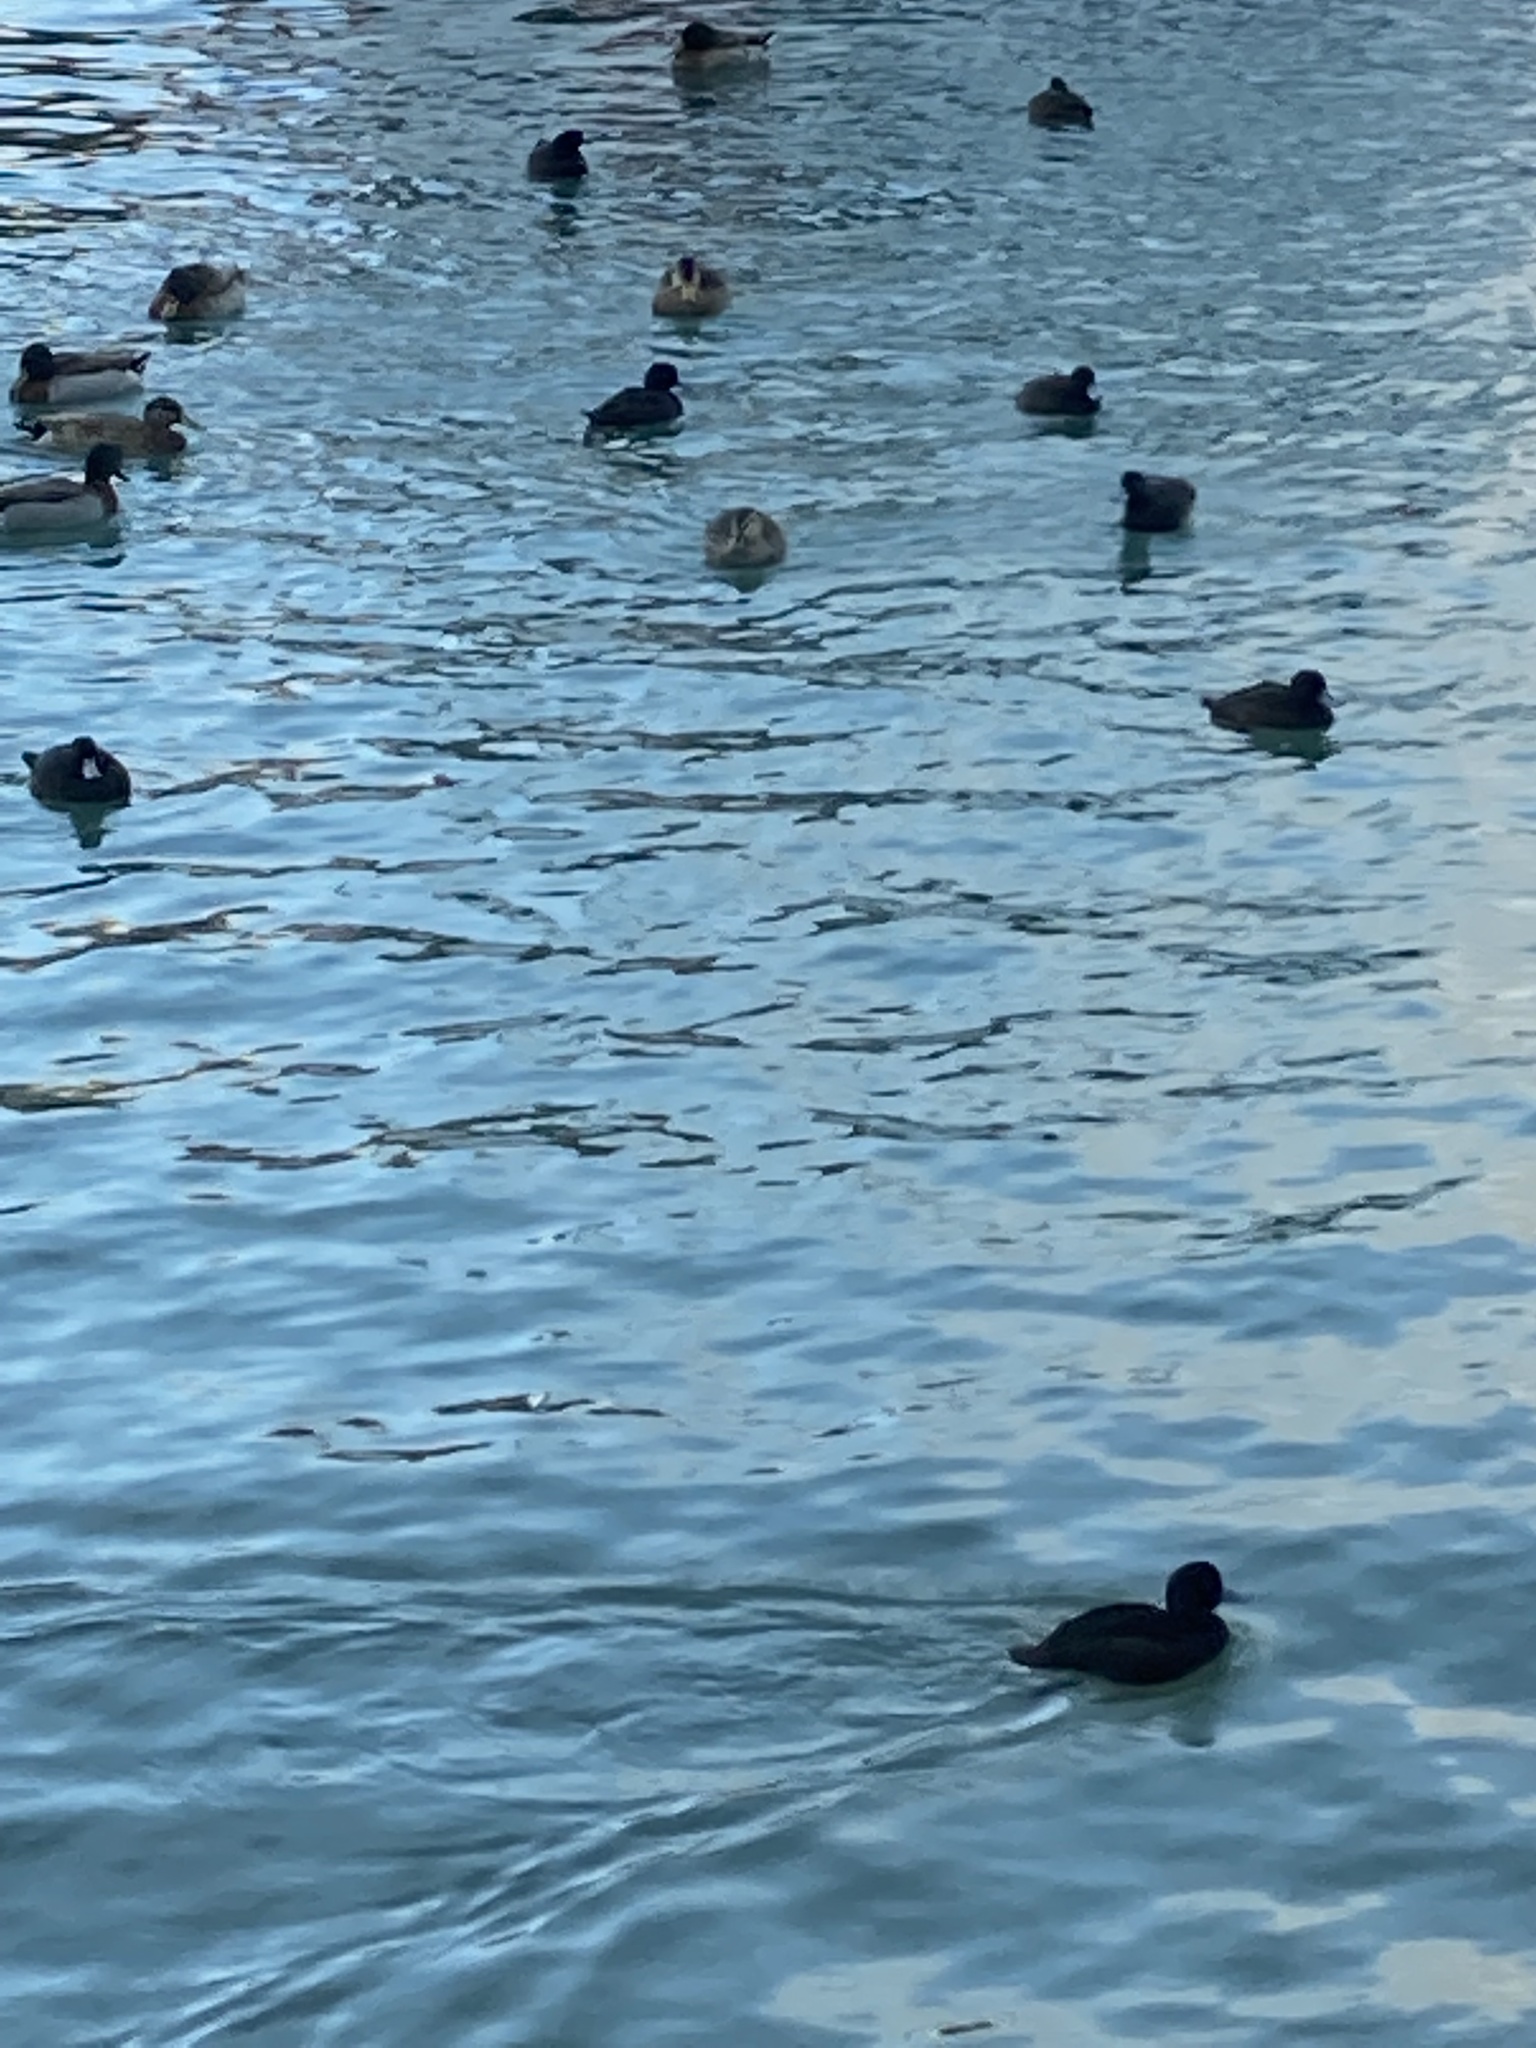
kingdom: Animalia
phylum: Chordata
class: Aves
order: Anseriformes
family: Anatidae
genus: Aythya
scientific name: Aythya novaeseelandiae
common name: New zealand scaup
